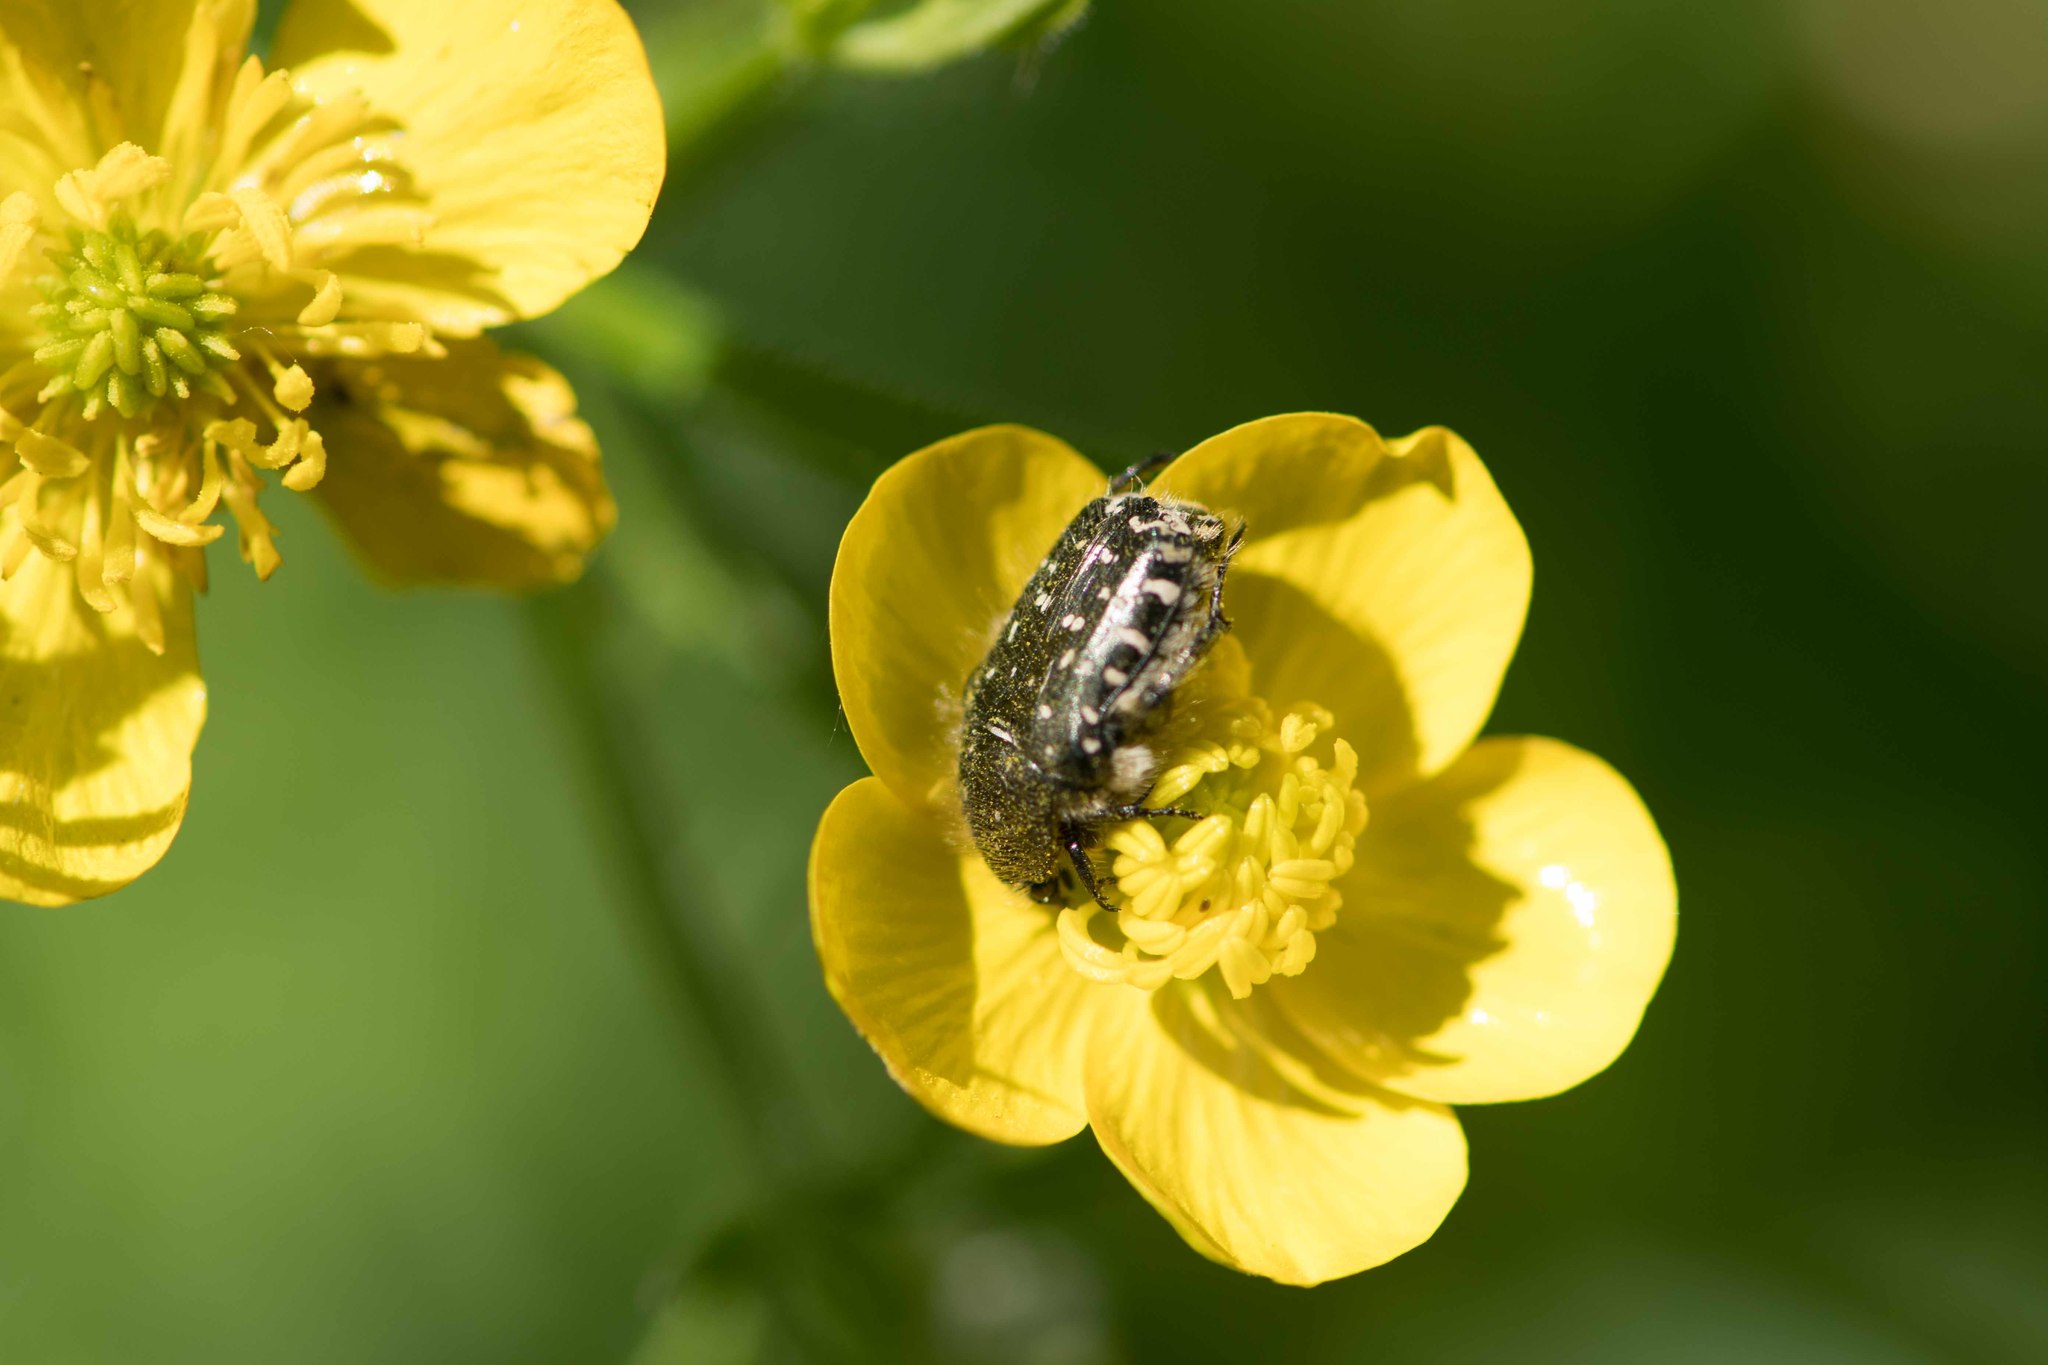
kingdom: Animalia
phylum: Arthropoda
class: Insecta
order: Coleoptera
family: Scarabaeidae
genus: Oxythyrea
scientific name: Oxythyrea funesta
